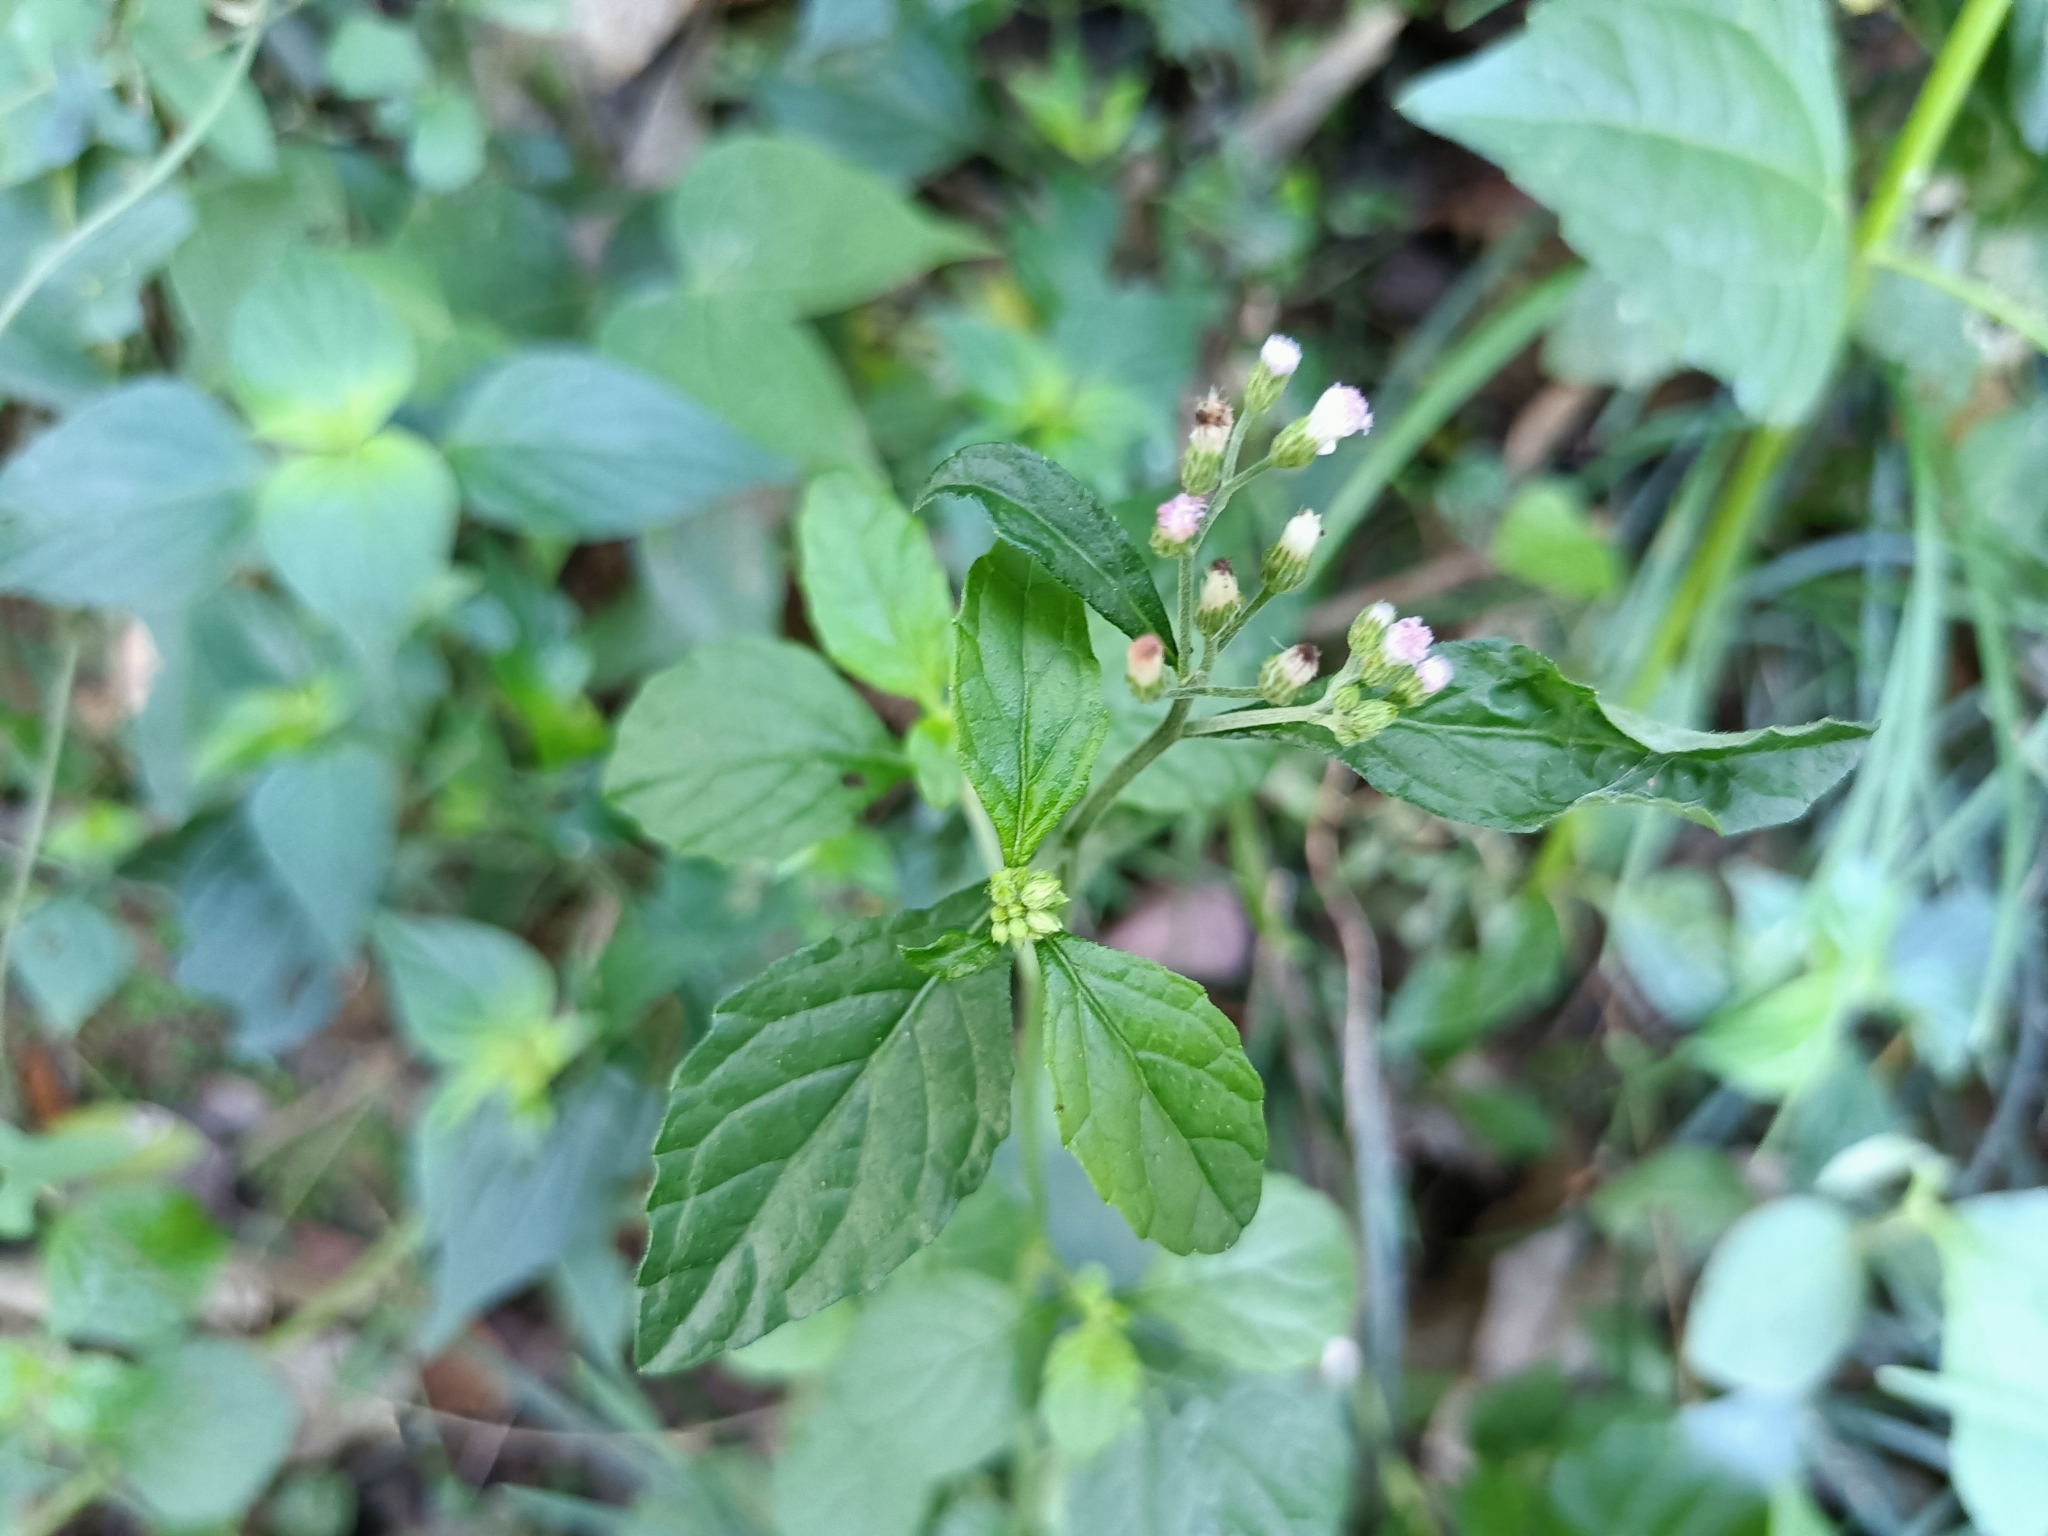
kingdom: Plantae
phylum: Tracheophyta
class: Magnoliopsida
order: Asterales
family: Asteraceae
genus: Cyanthillium
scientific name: Cyanthillium cinereum
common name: Little ironweed
